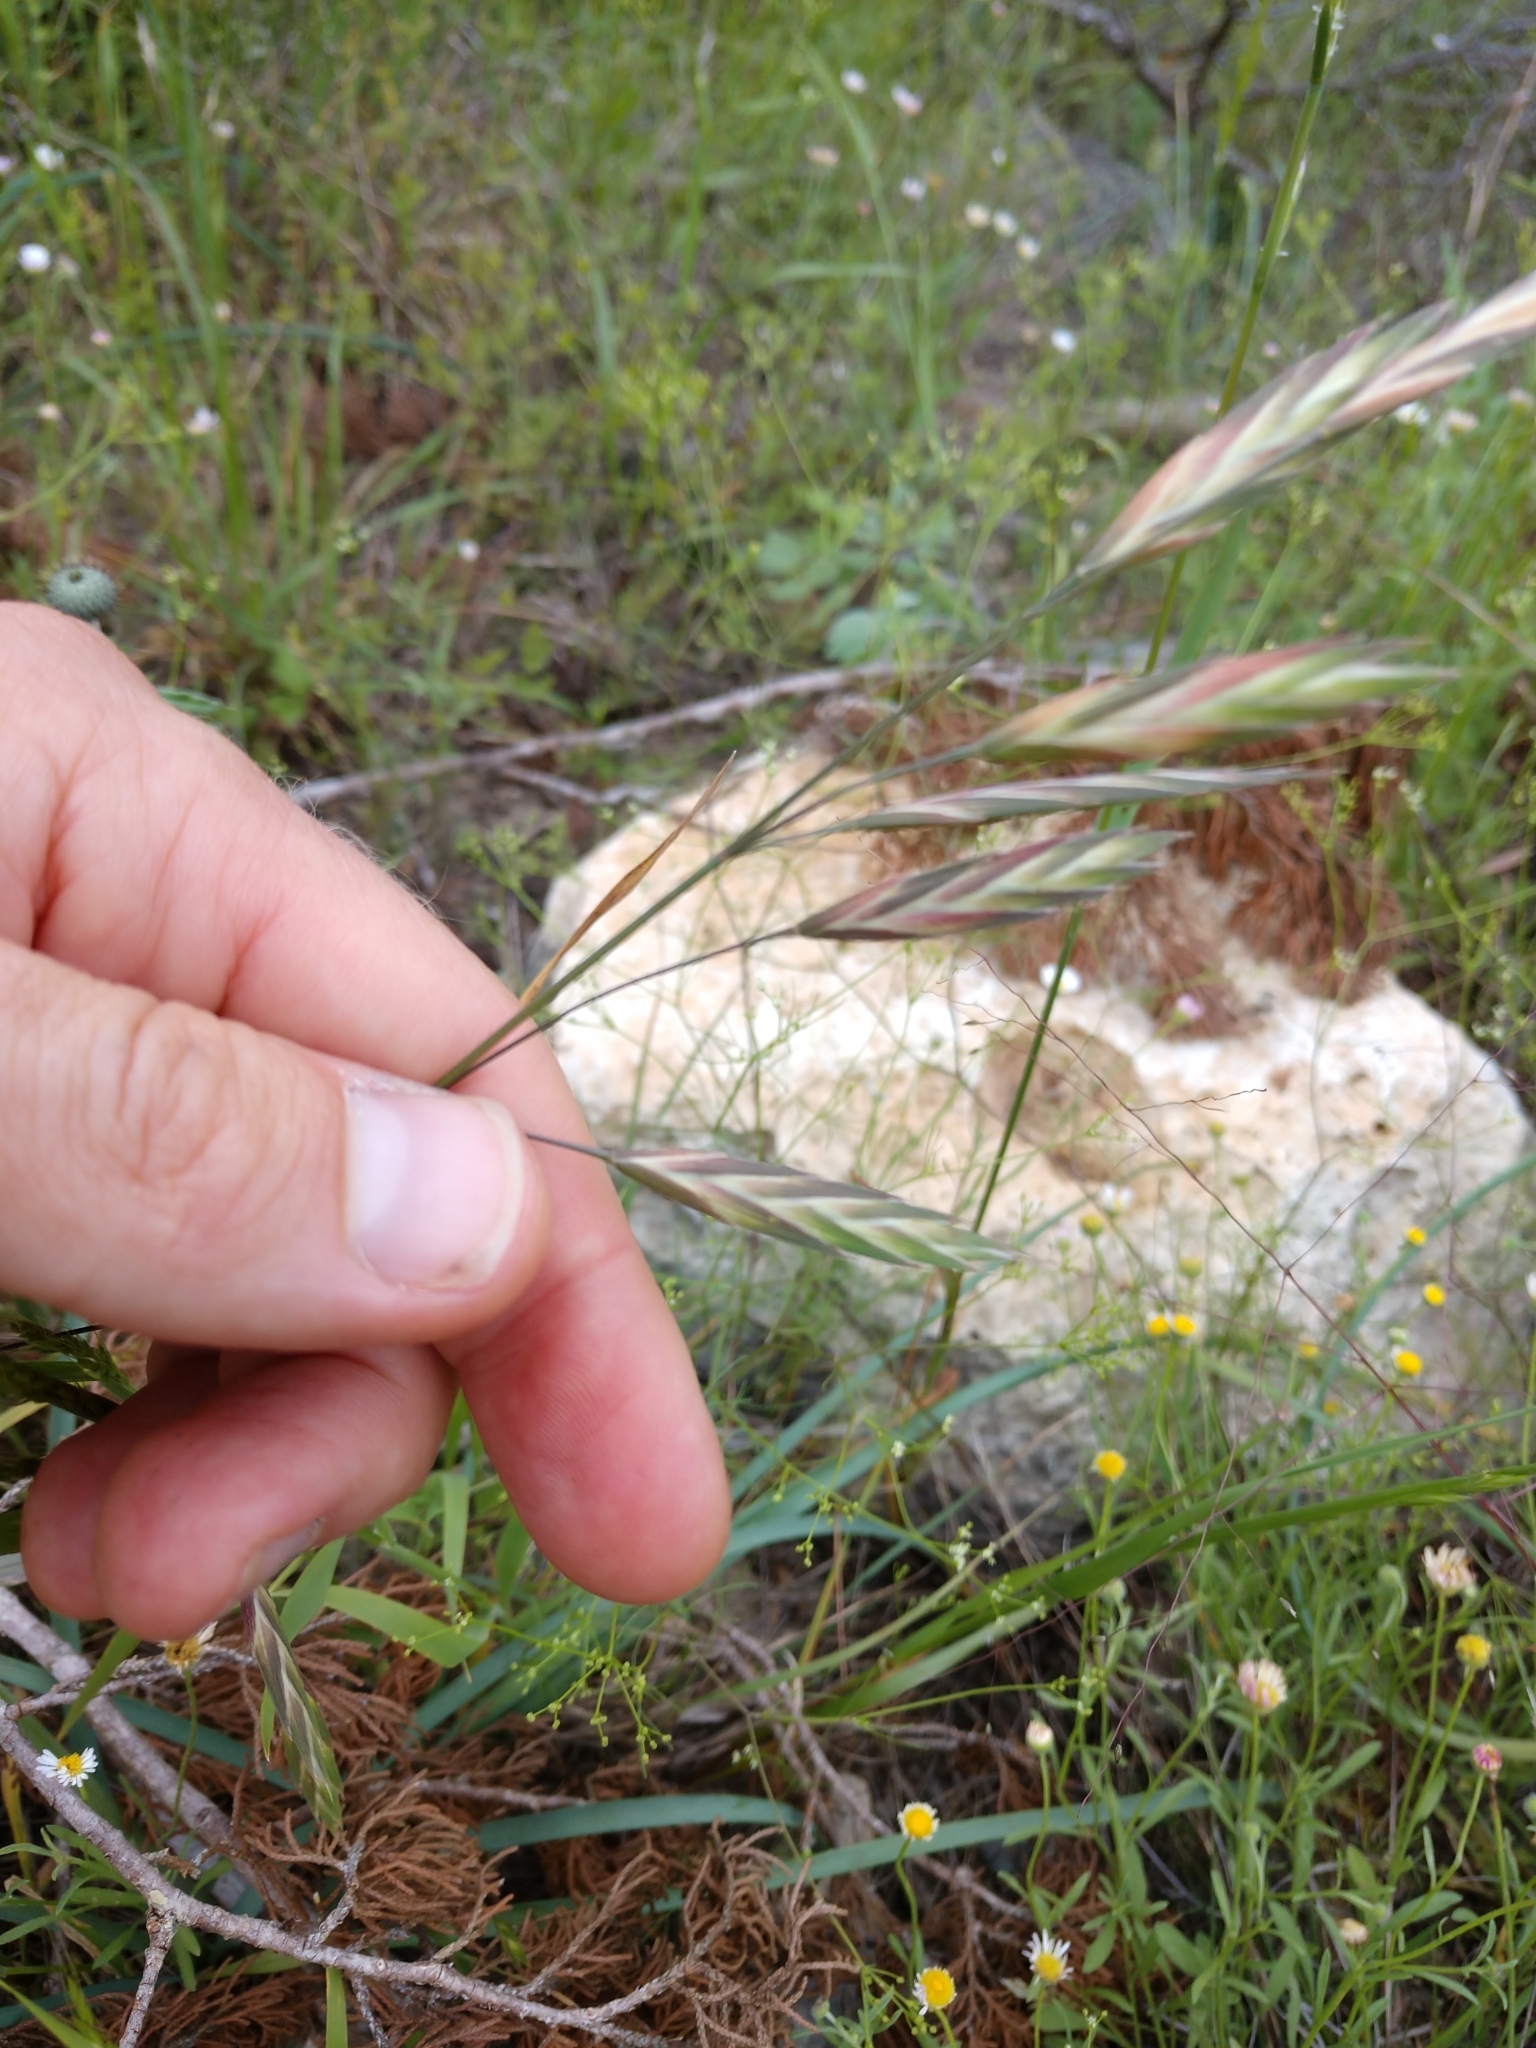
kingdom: Plantae
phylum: Tracheophyta
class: Liliopsida
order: Poales
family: Poaceae
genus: Bromus
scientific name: Bromus catharticus
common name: Rescuegrass
